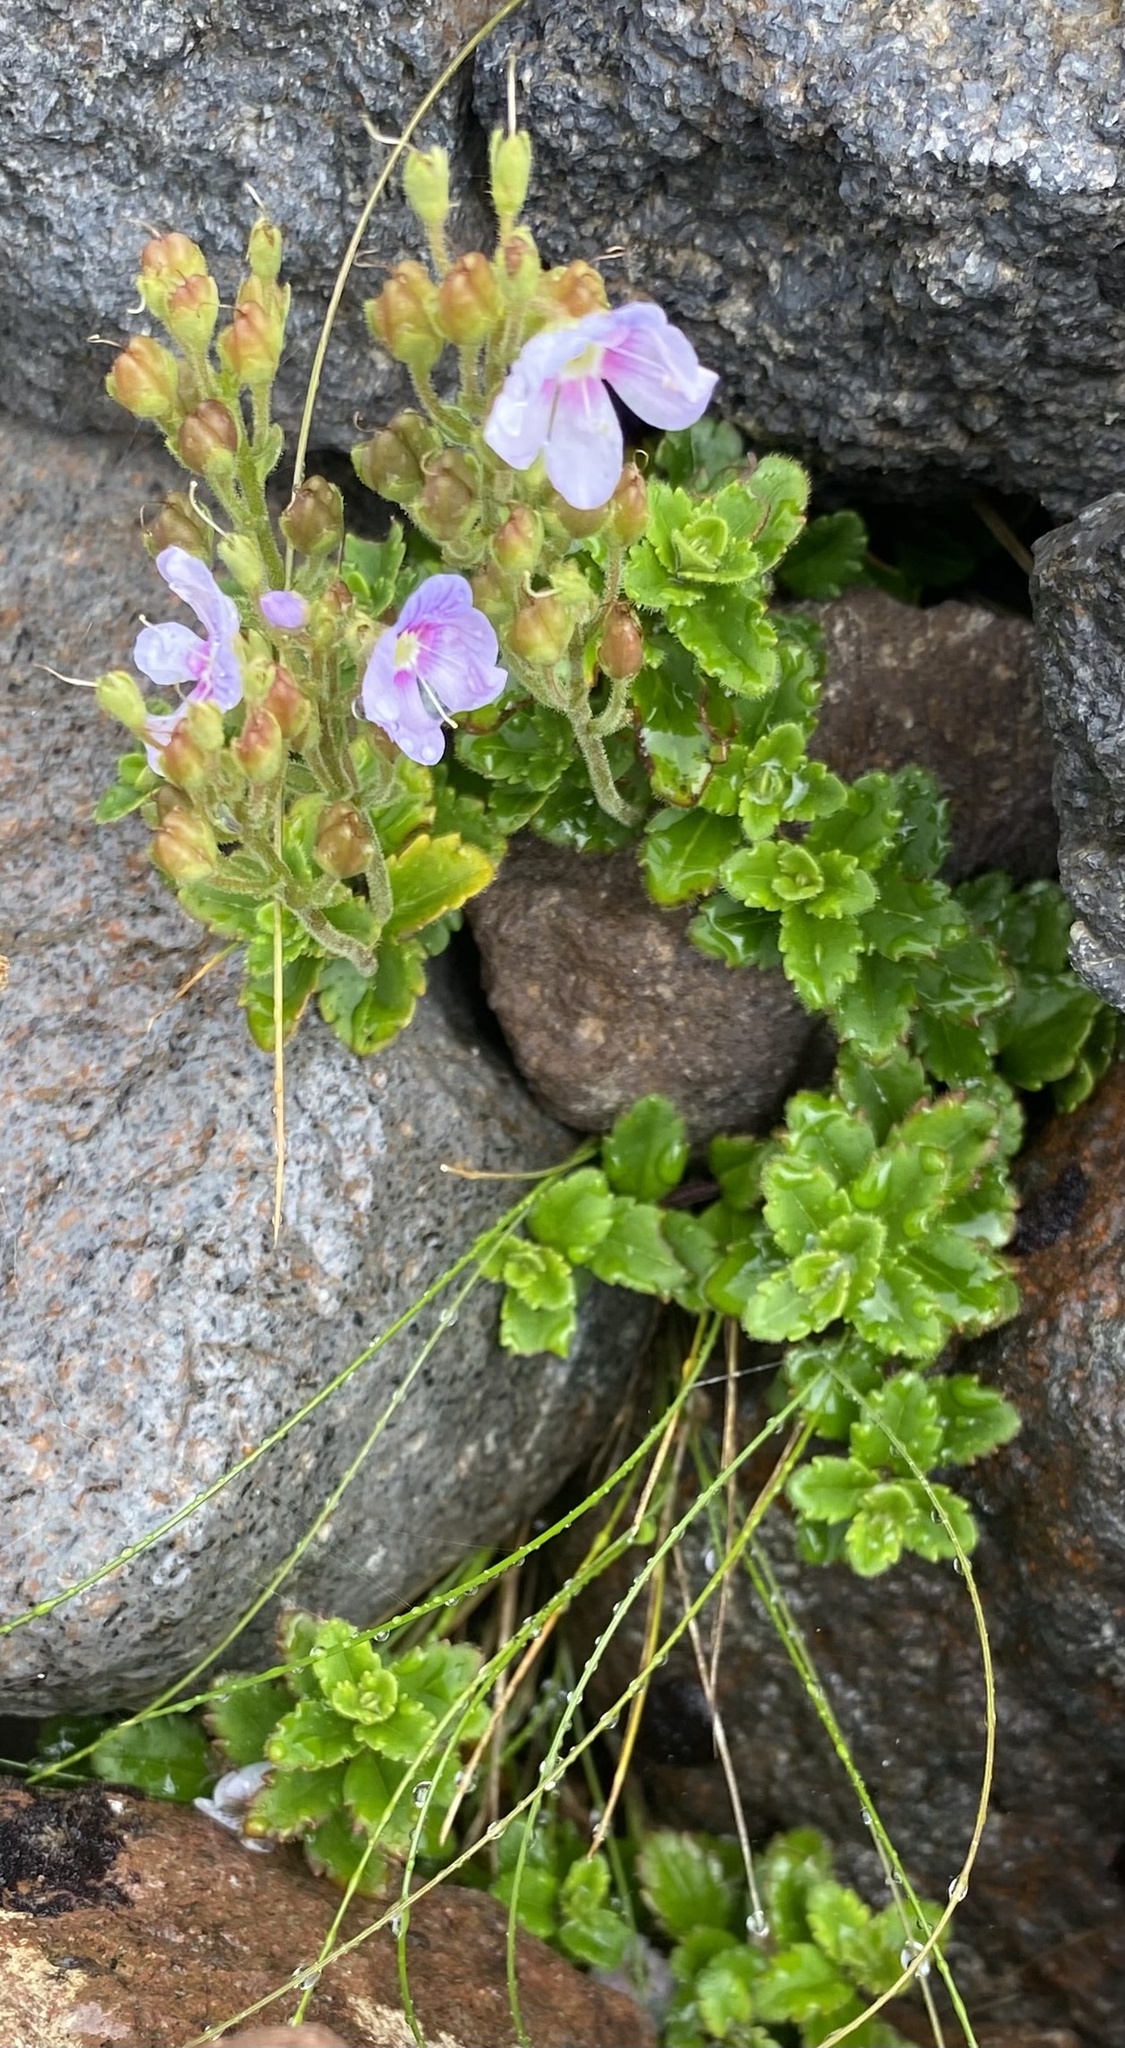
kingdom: Plantae
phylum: Tracheophyta
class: Magnoliopsida
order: Lamiales
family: Plantaginaceae
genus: Veronica
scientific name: Veronica hookeriana
